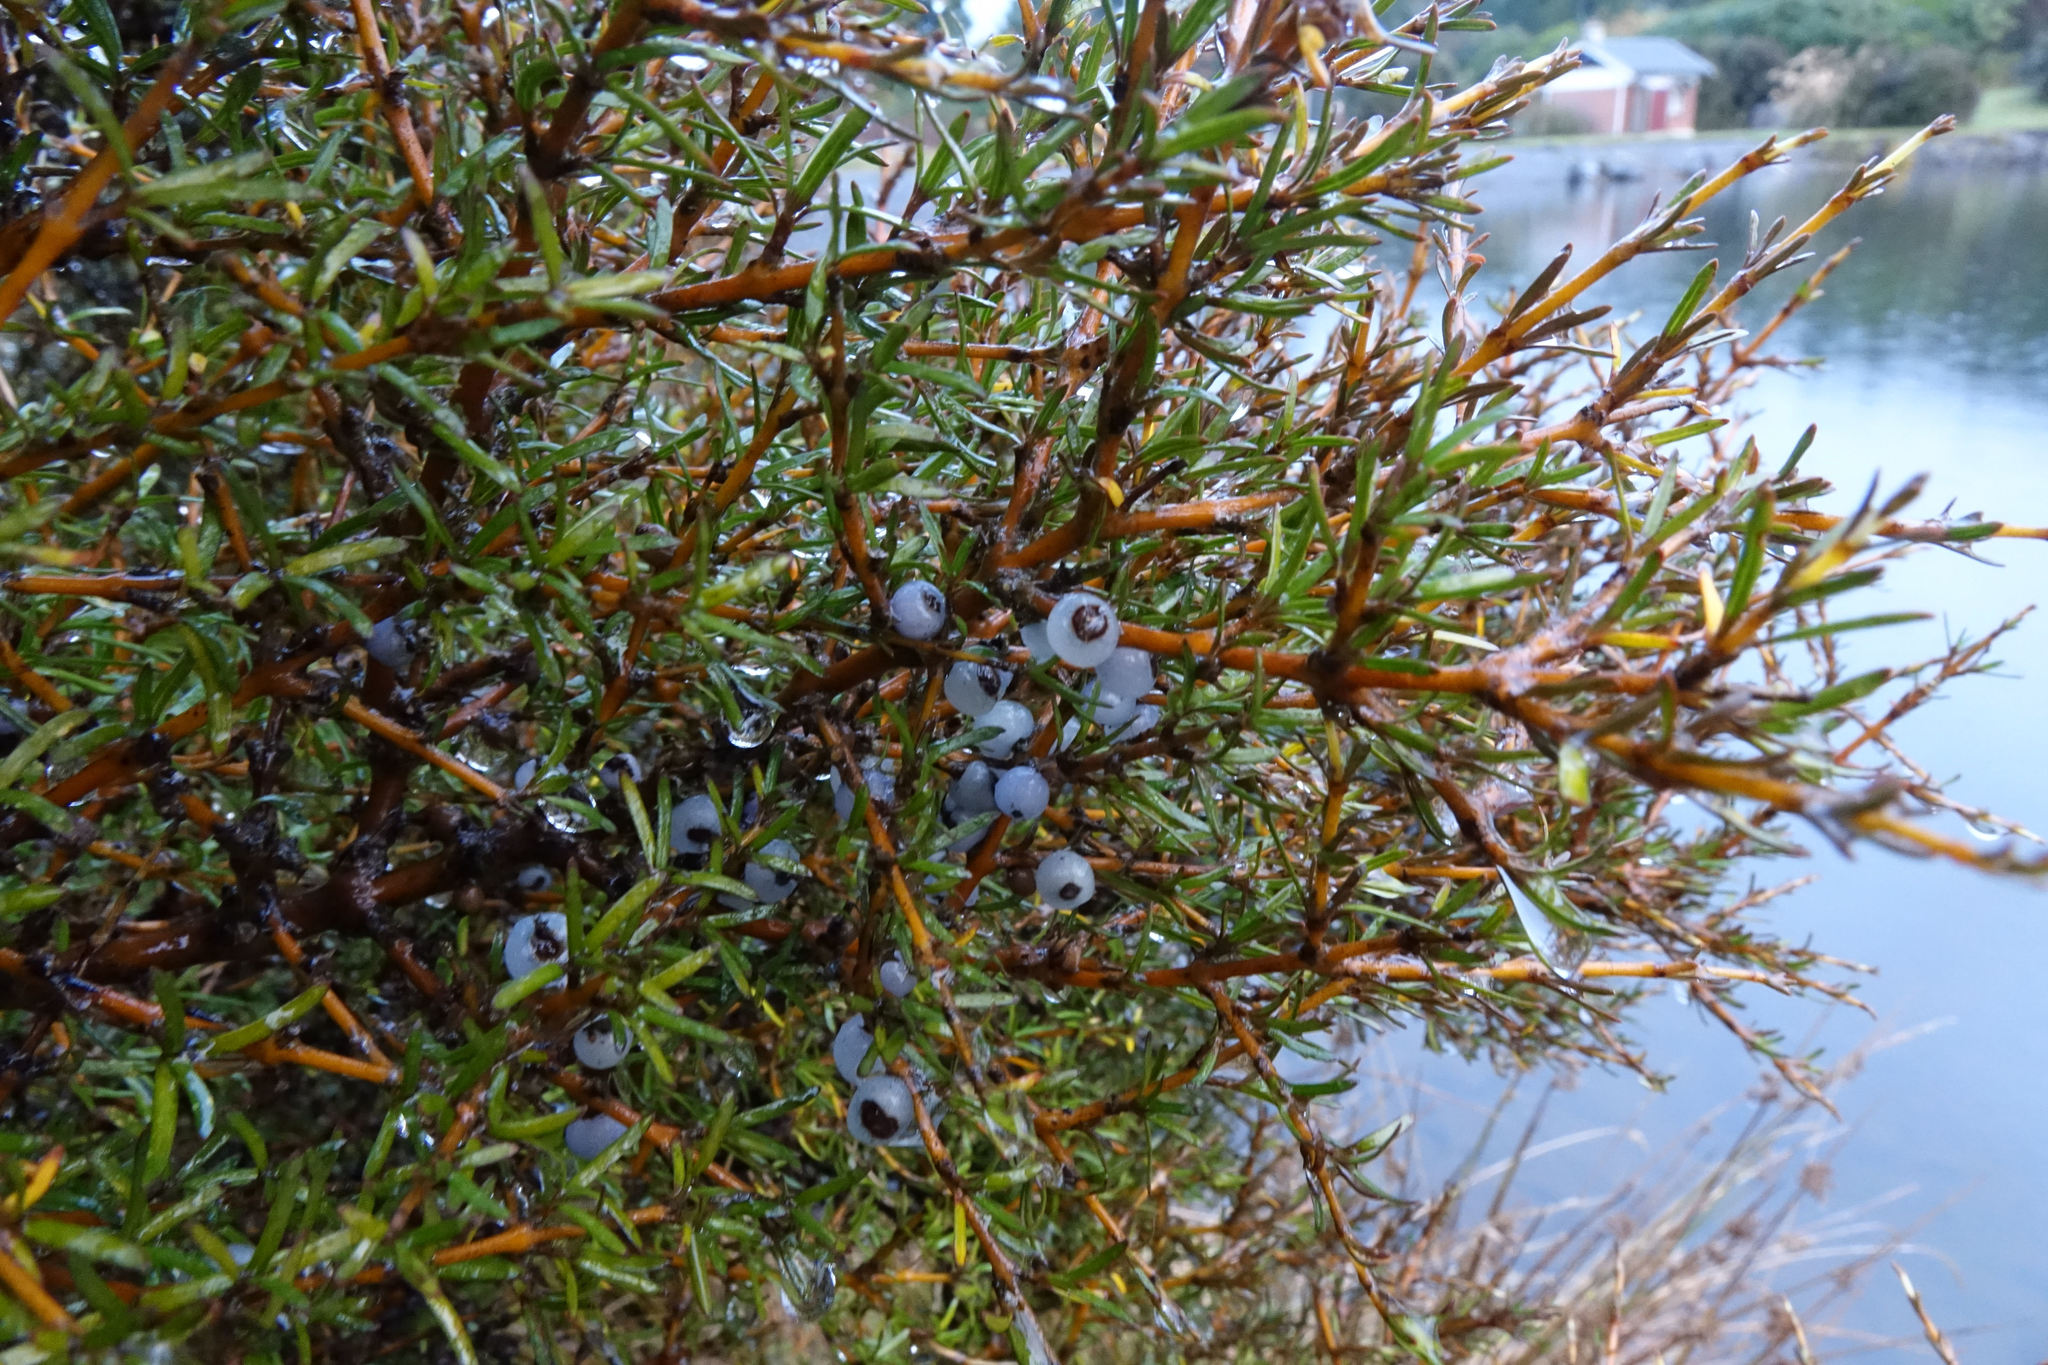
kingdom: Plantae
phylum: Tracheophyta
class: Magnoliopsida
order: Gentianales
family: Rubiaceae
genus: Coprosma
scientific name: Coprosma rugosa
